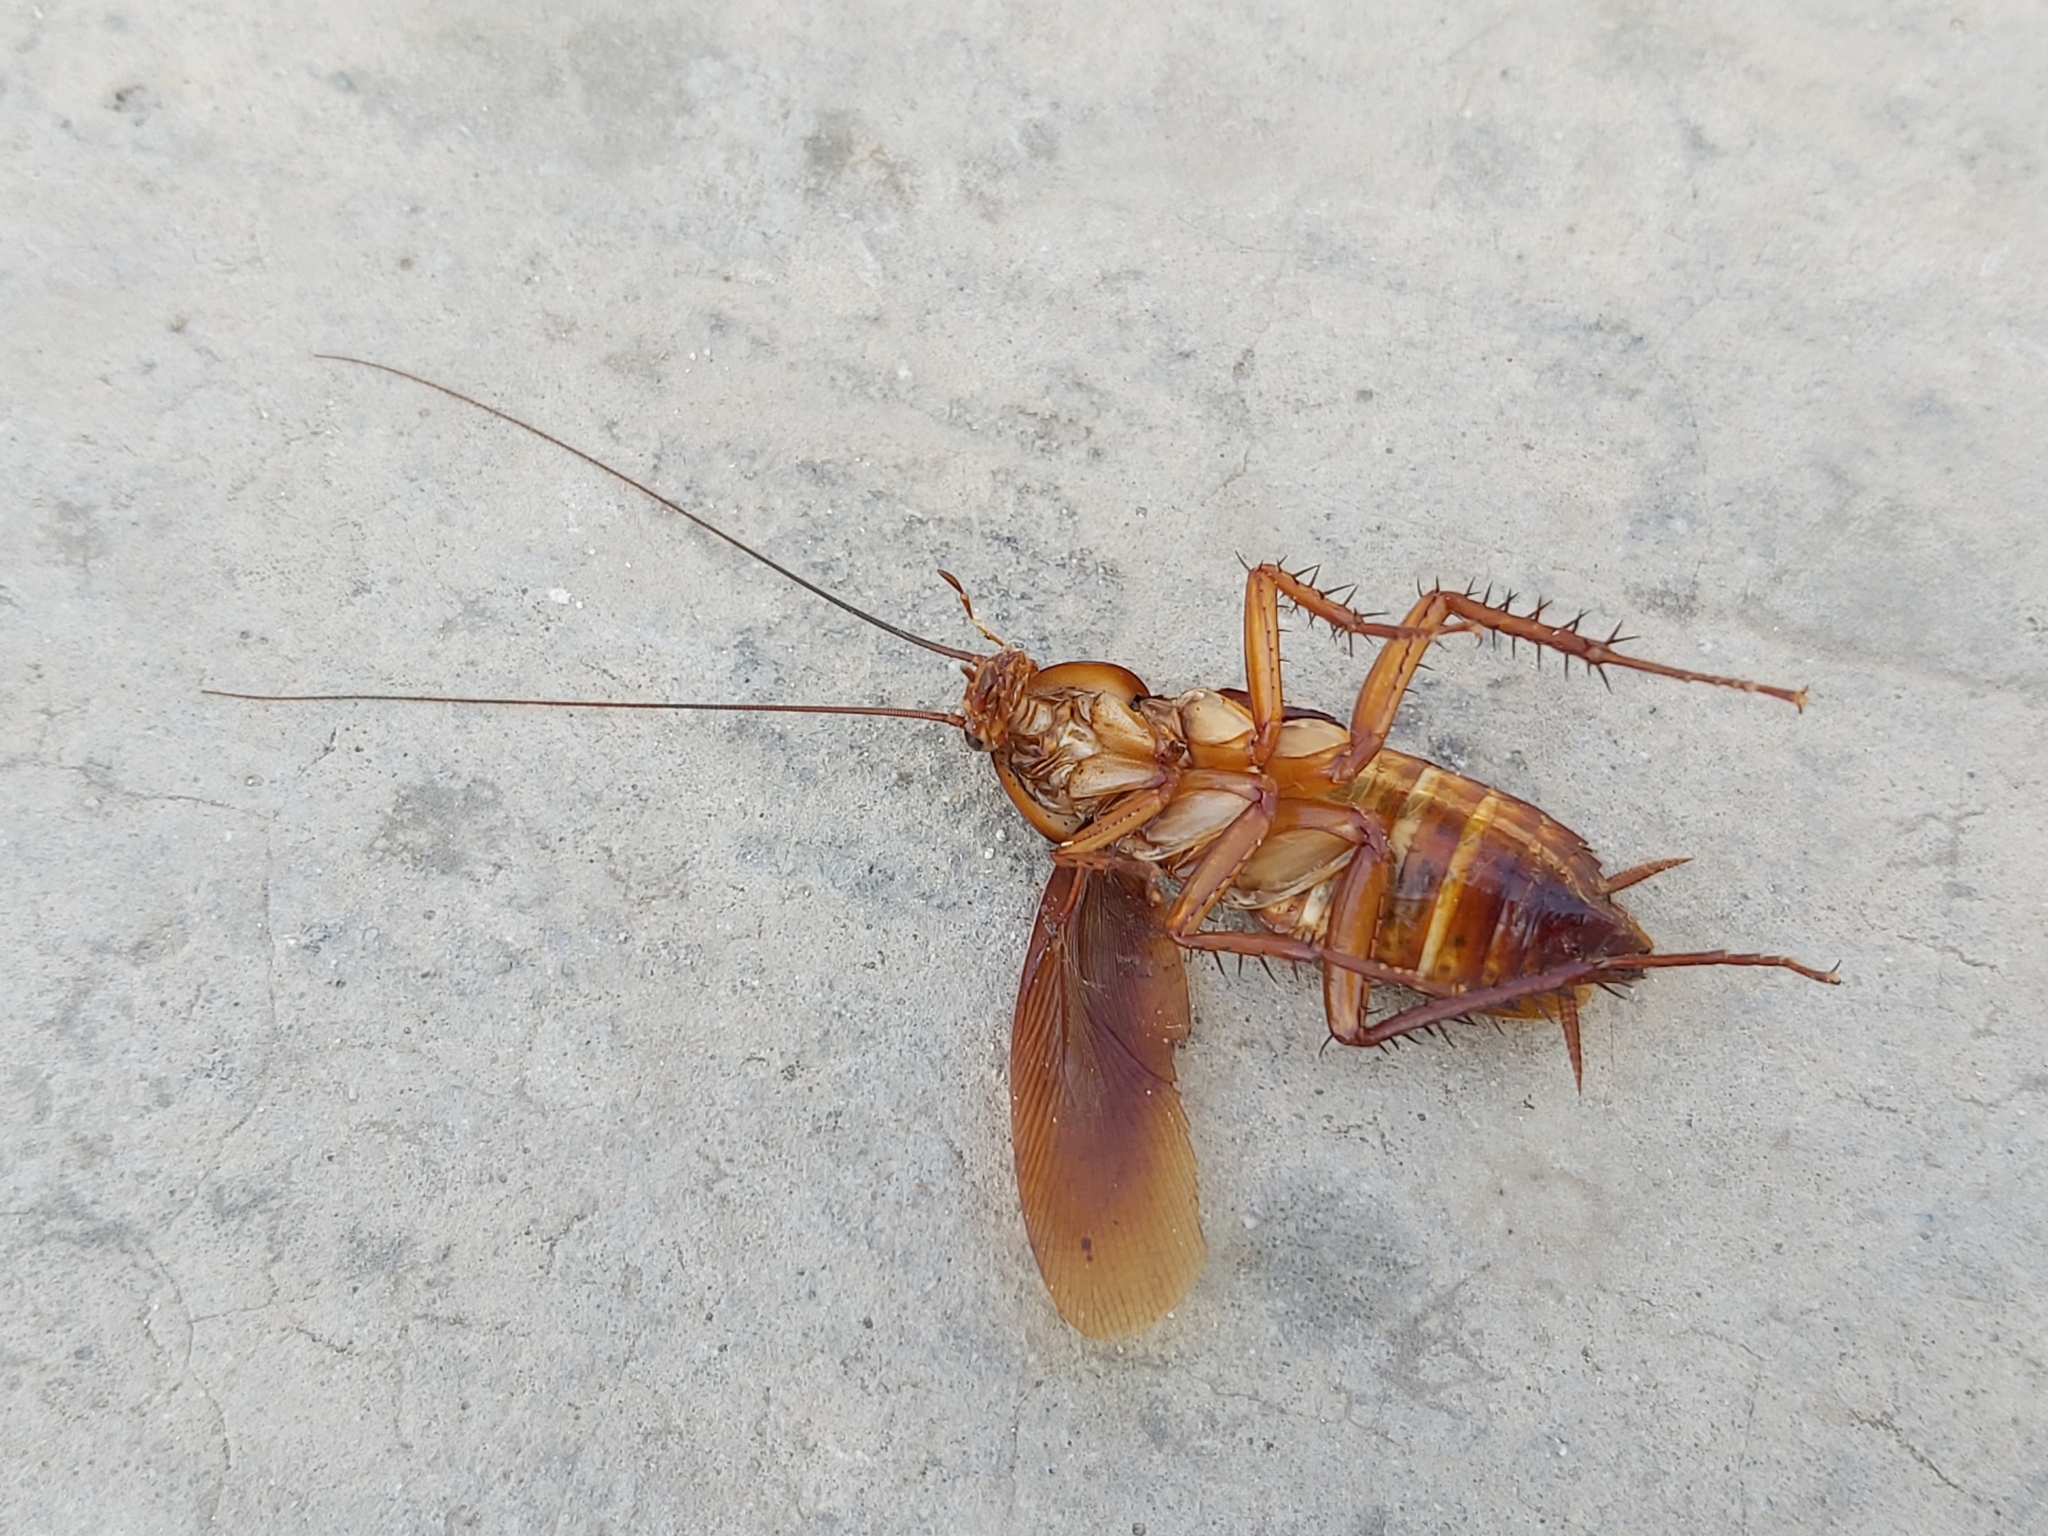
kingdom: Animalia
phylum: Arthropoda
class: Insecta
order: Blattodea
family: Blattidae
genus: Periplaneta
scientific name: Periplaneta americana
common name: American cockroach
